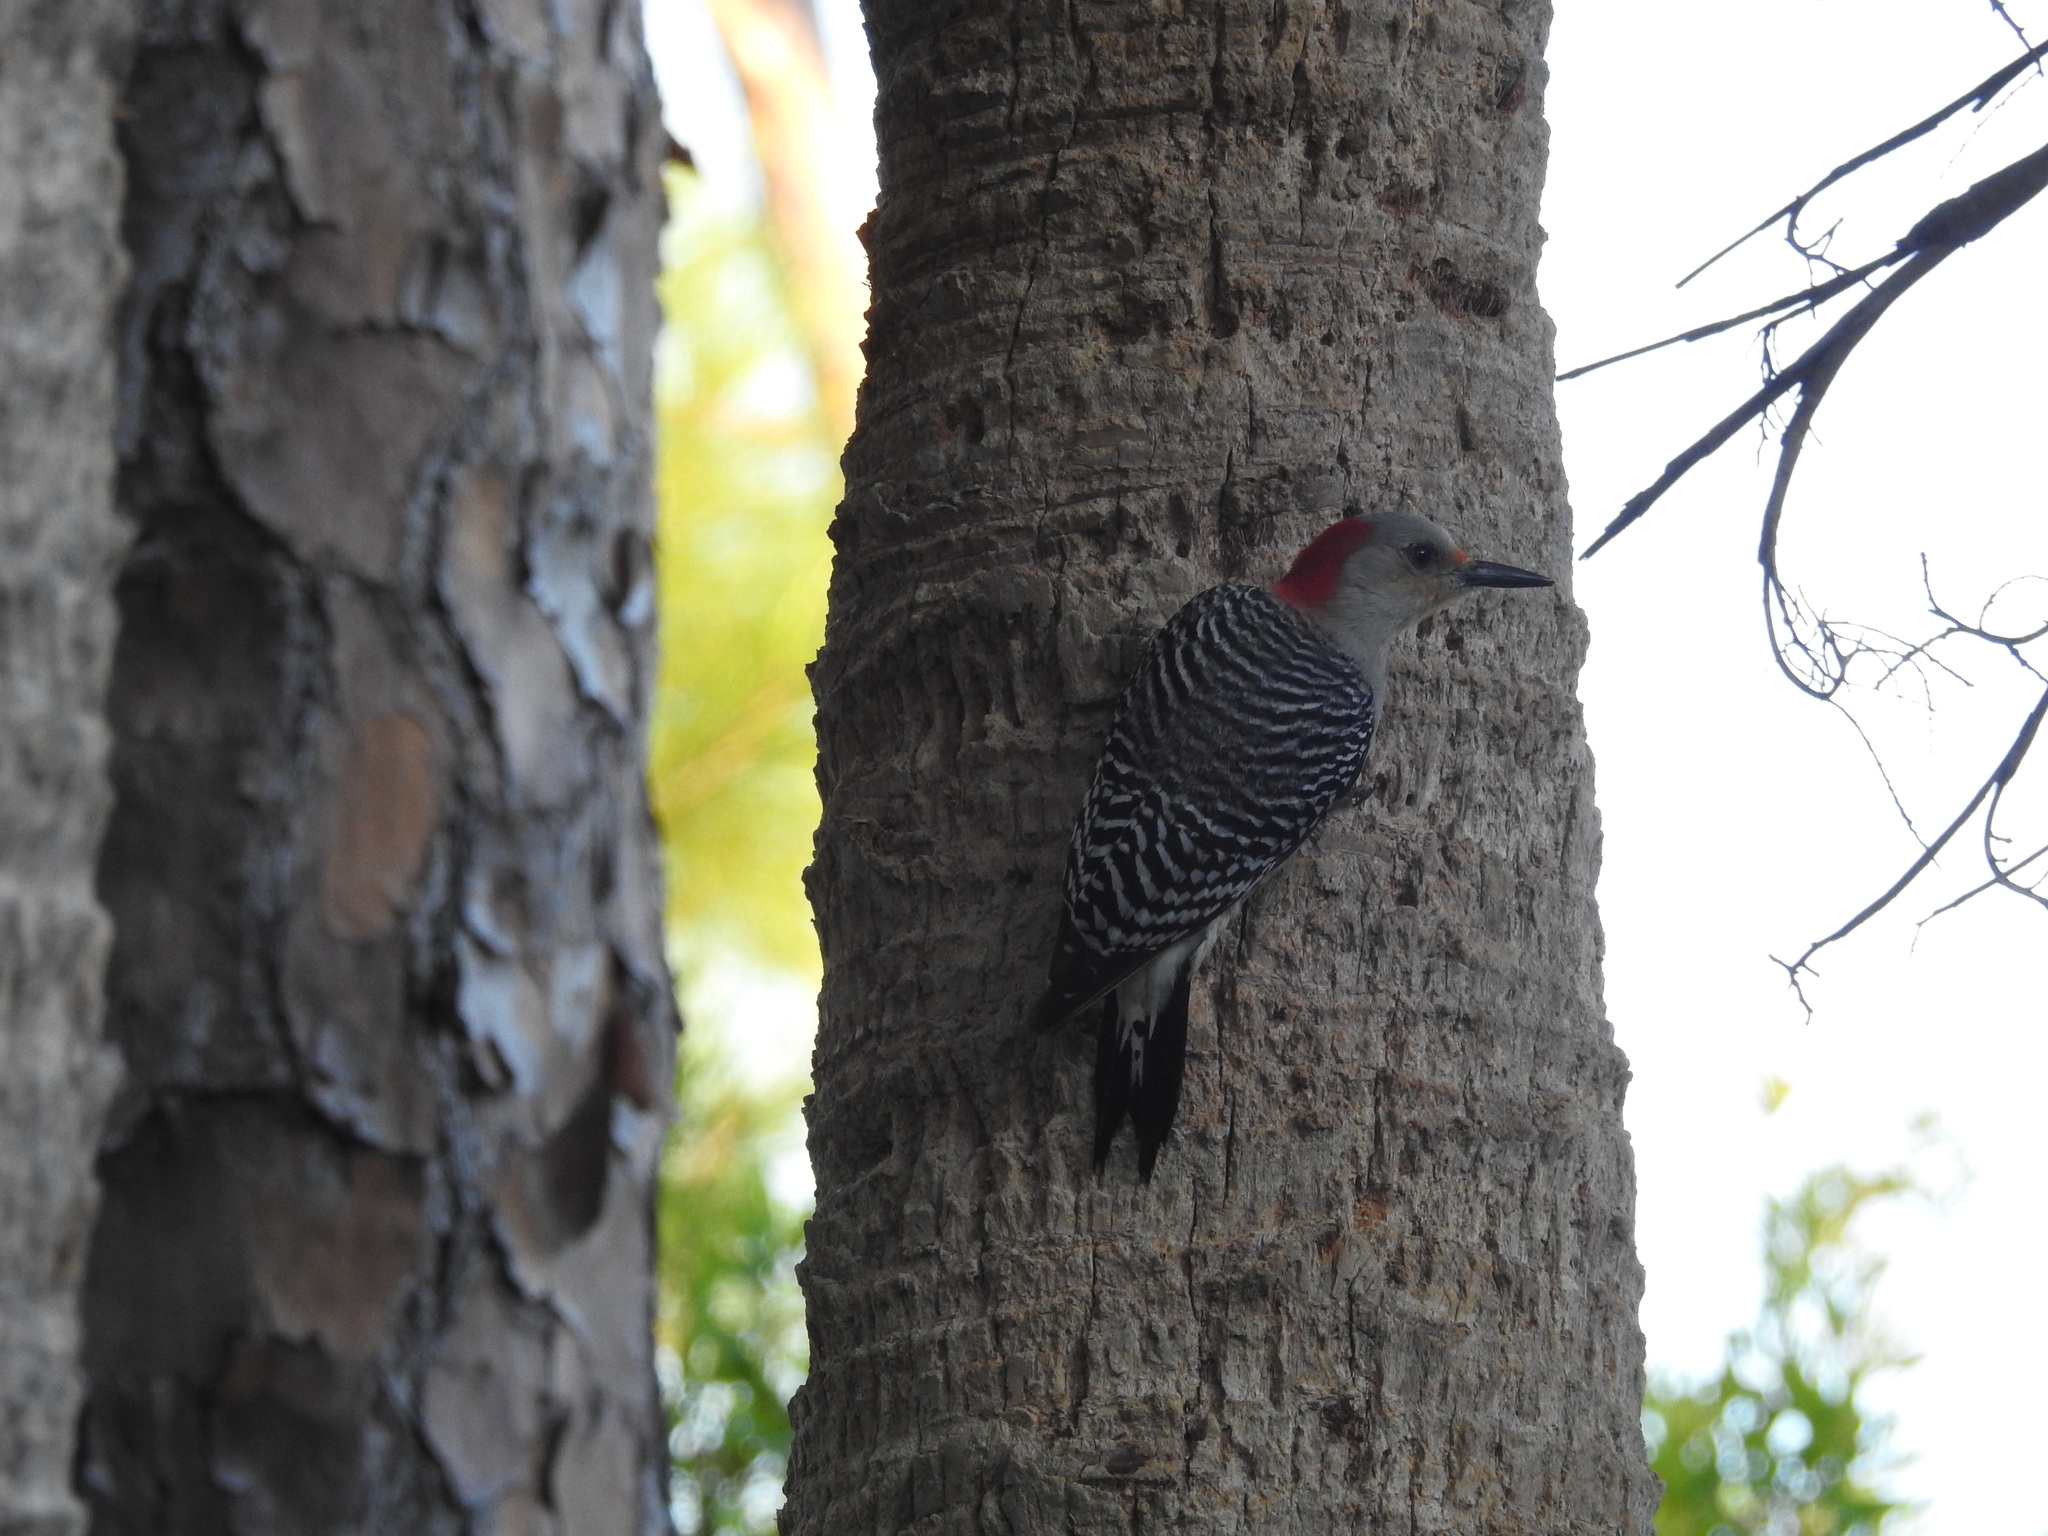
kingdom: Animalia
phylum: Chordata
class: Aves
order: Piciformes
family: Picidae
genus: Melanerpes
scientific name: Melanerpes carolinus
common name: Red-bellied woodpecker
